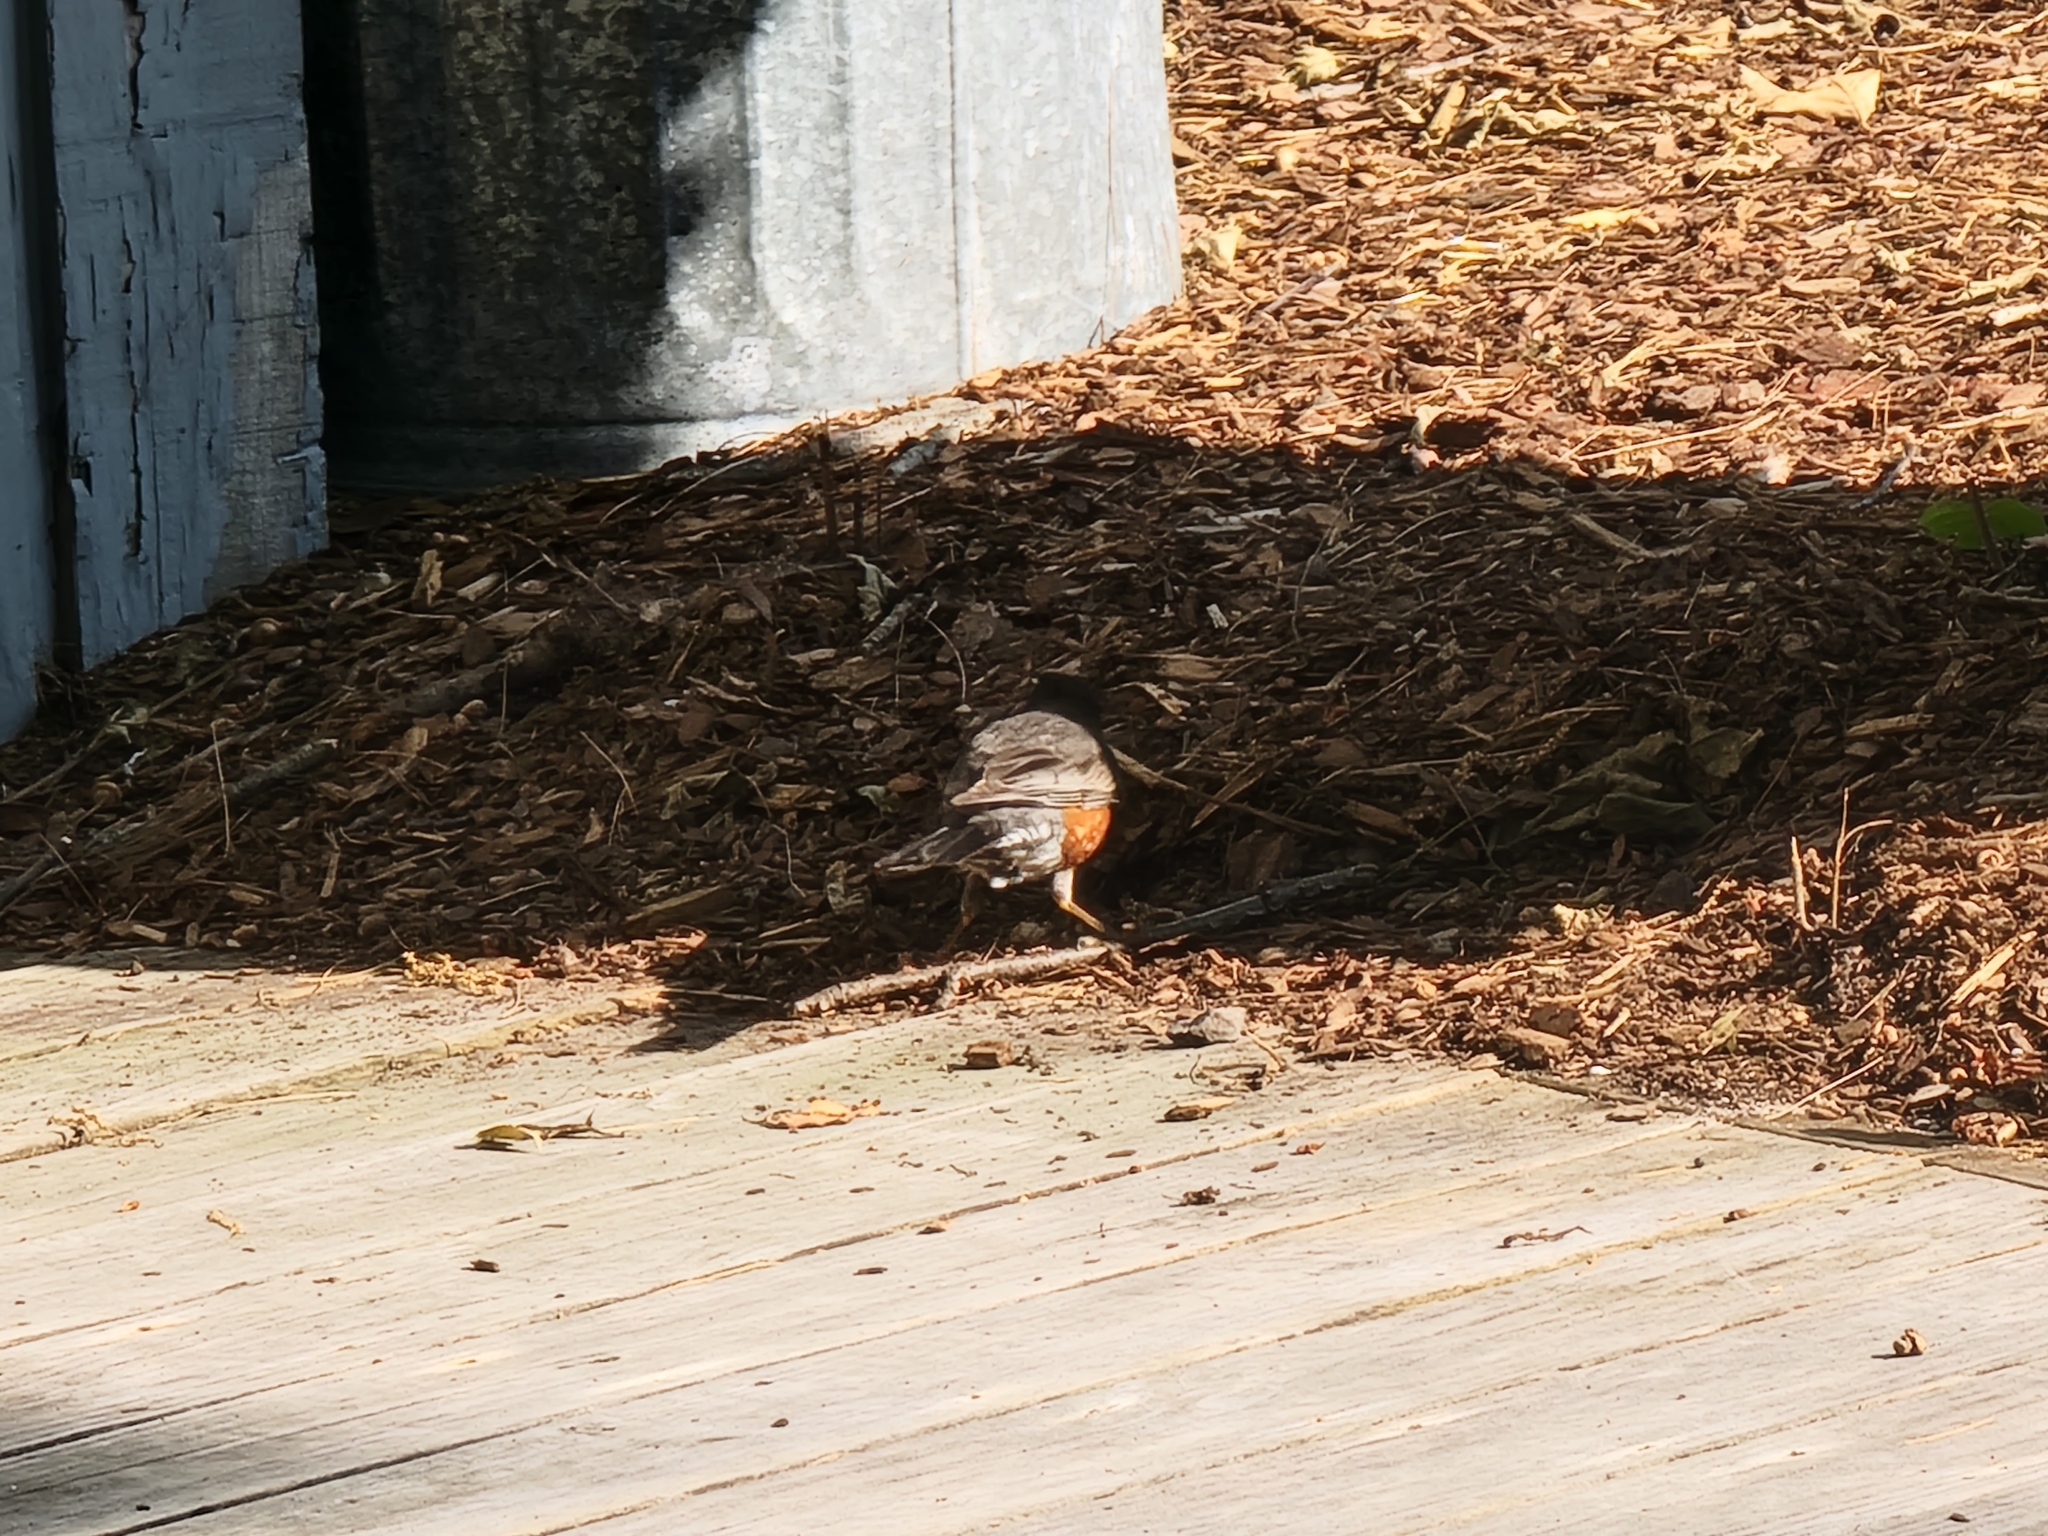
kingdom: Animalia
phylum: Chordata
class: Aves
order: Passeriformes
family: Turdidae
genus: Turdus
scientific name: Turdus migratorius
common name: American robin
